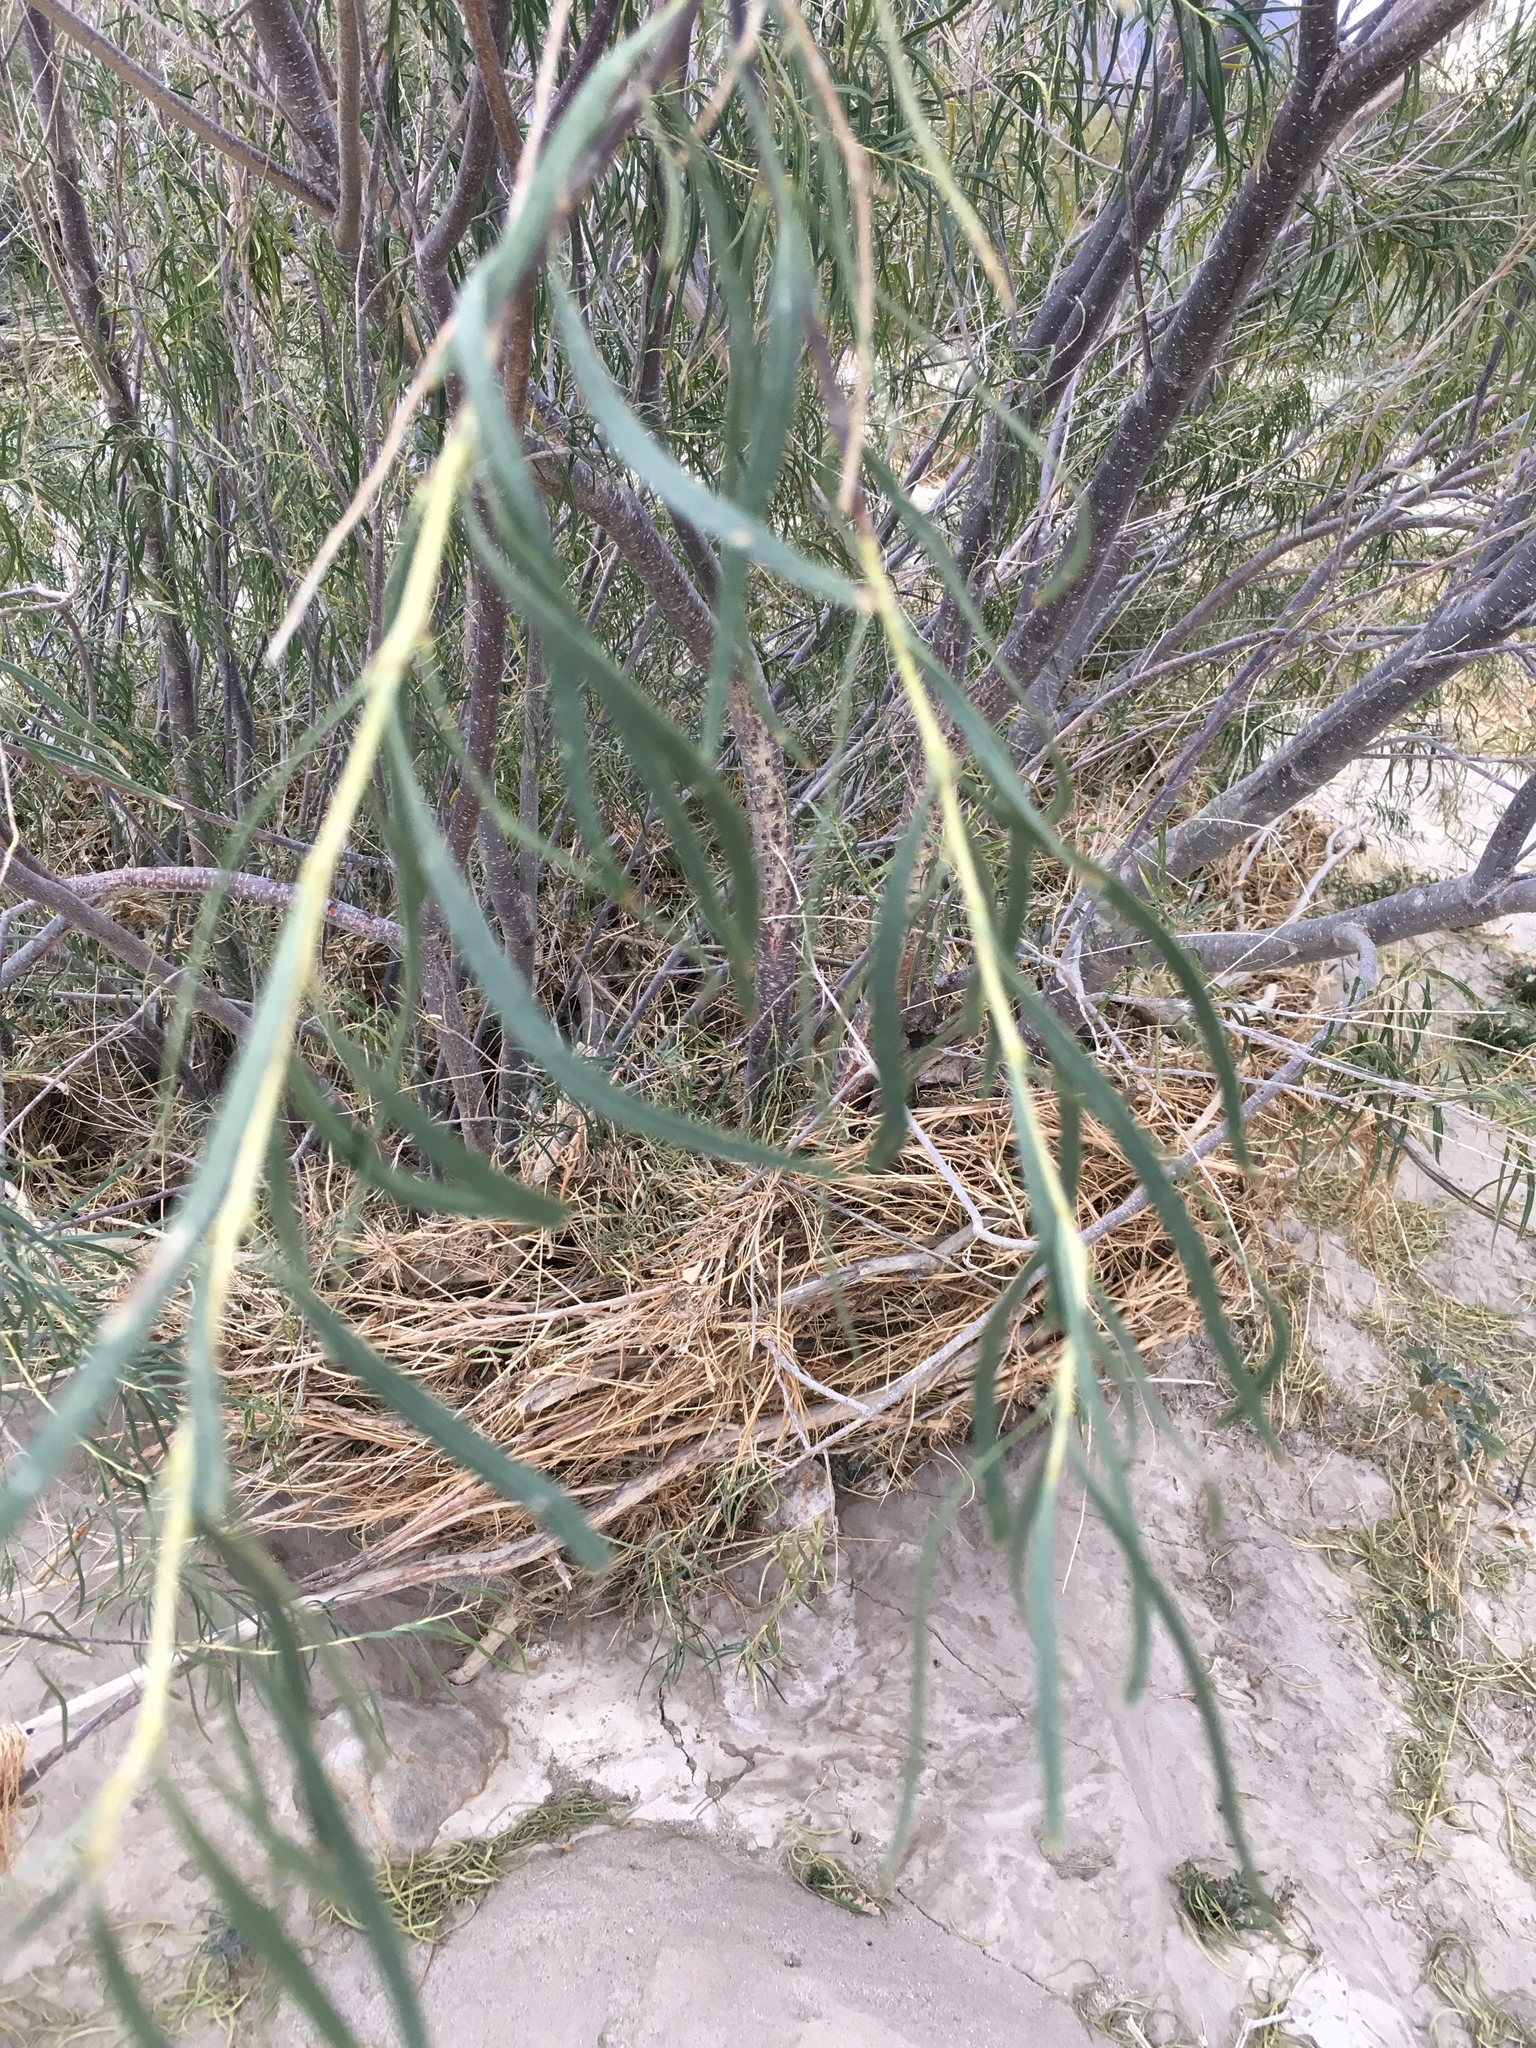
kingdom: Plantae
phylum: Tracheophyta
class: Magnoliopsida
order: Lamiales
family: Bignoniaceae
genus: Chilopsis
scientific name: Chilopsis linearis
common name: Desert-willow
